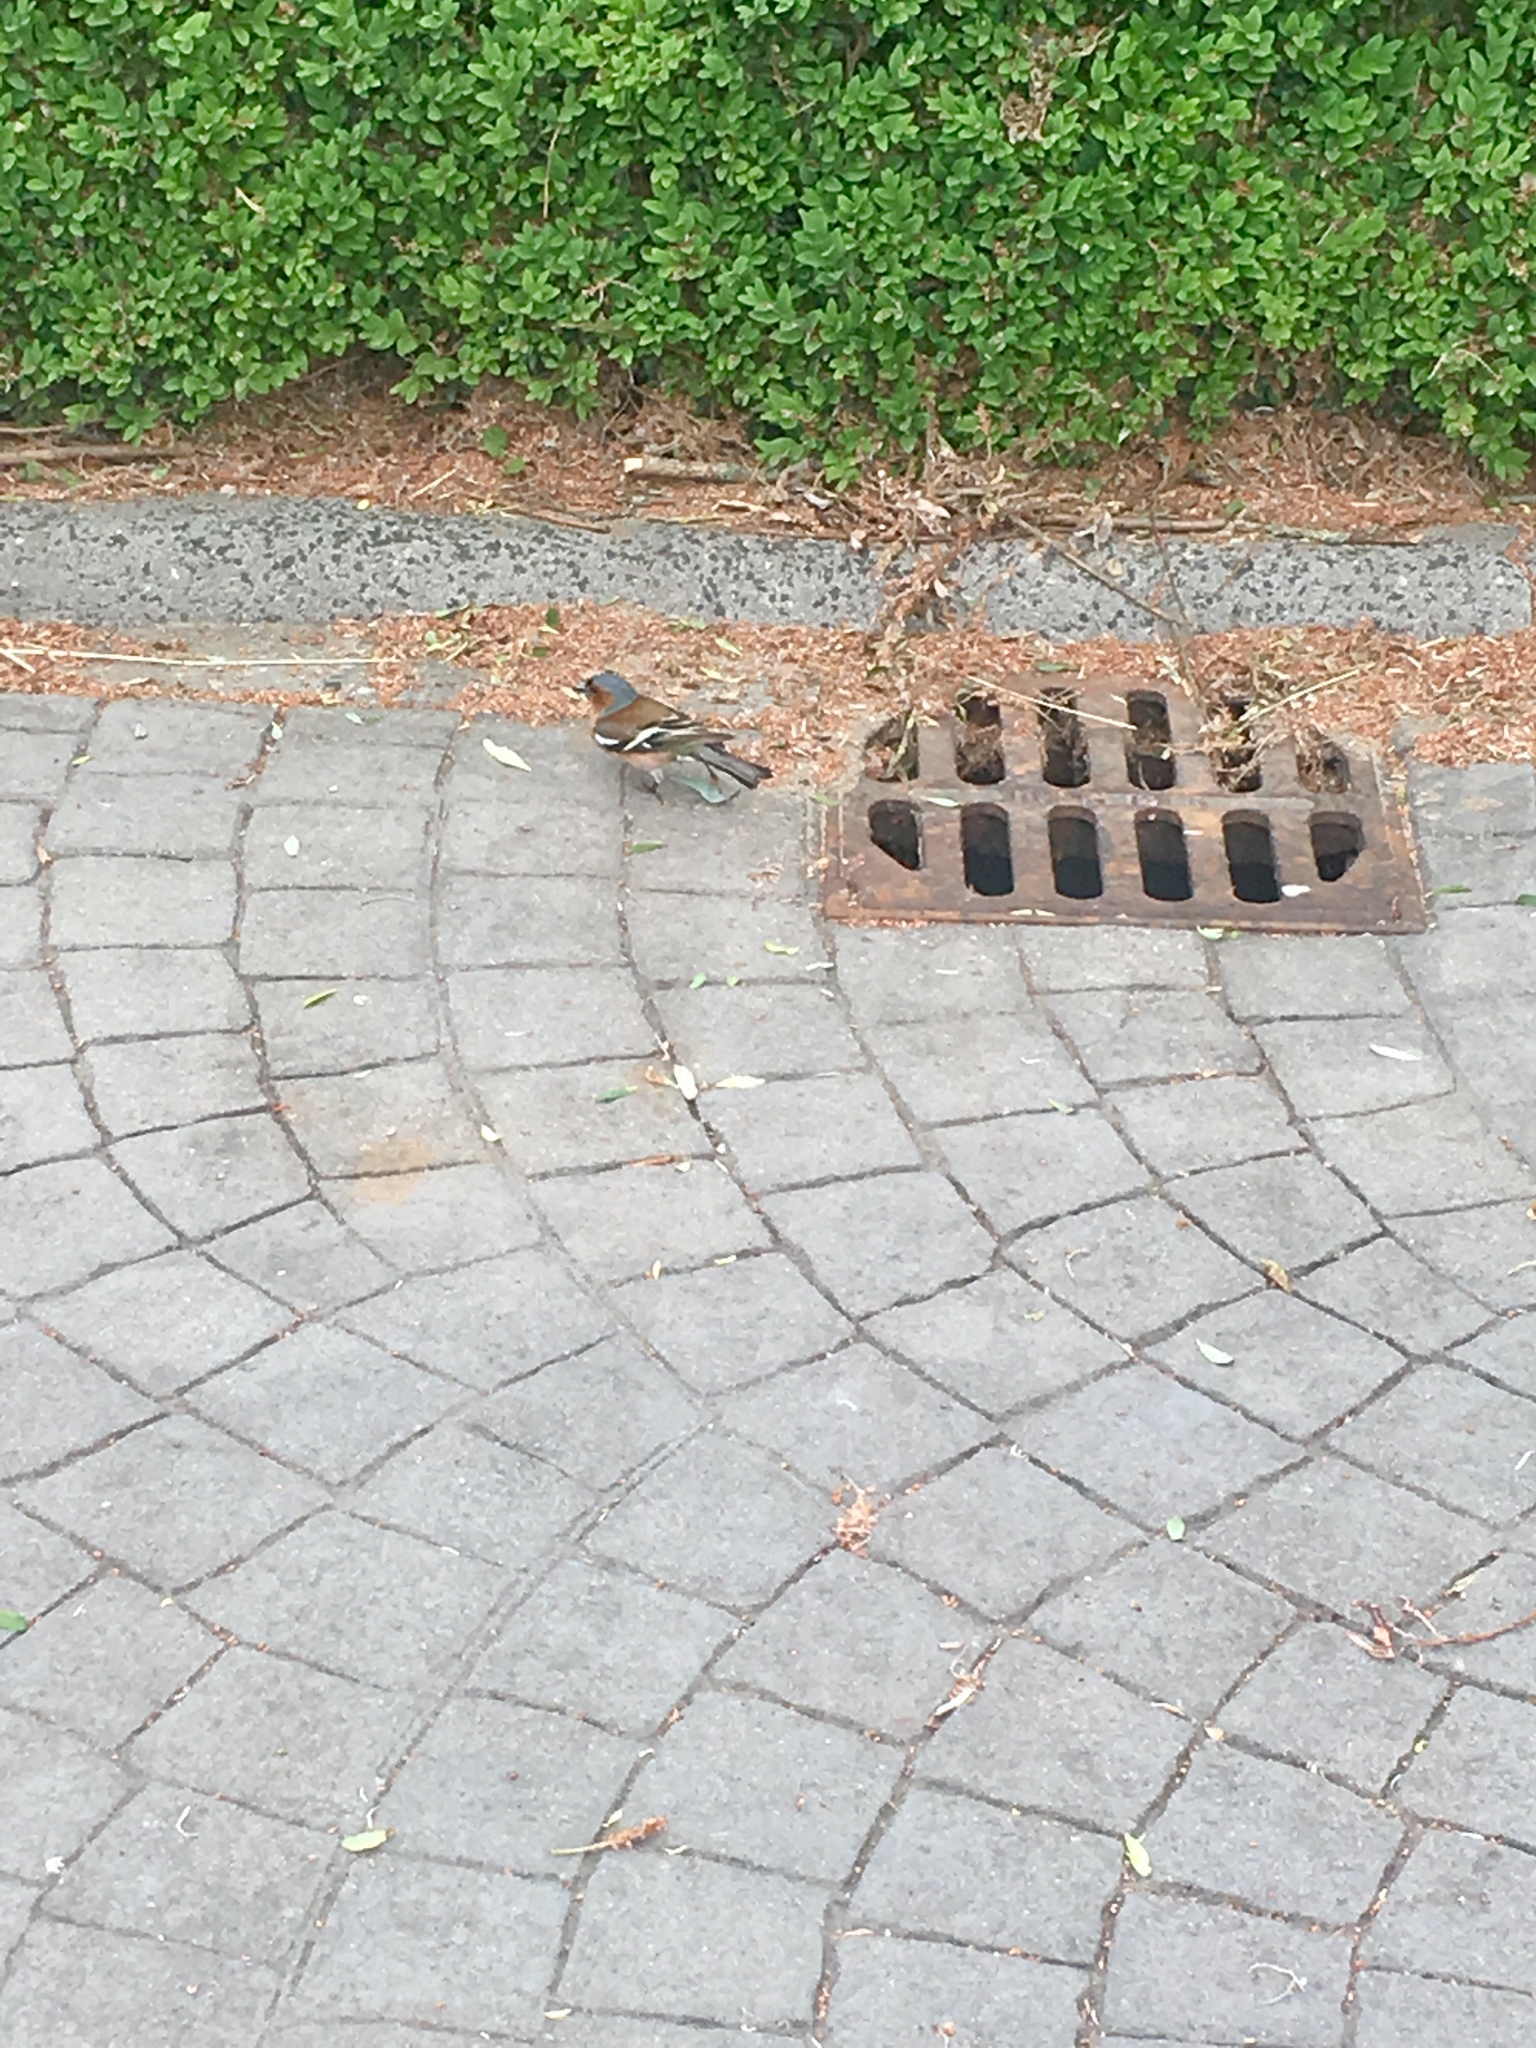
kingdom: Animalia
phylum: Chordata
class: Aves
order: Passeriformes
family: Fringillidae
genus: Fringilla
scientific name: Fringilla coelebs
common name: Common chaffinch
